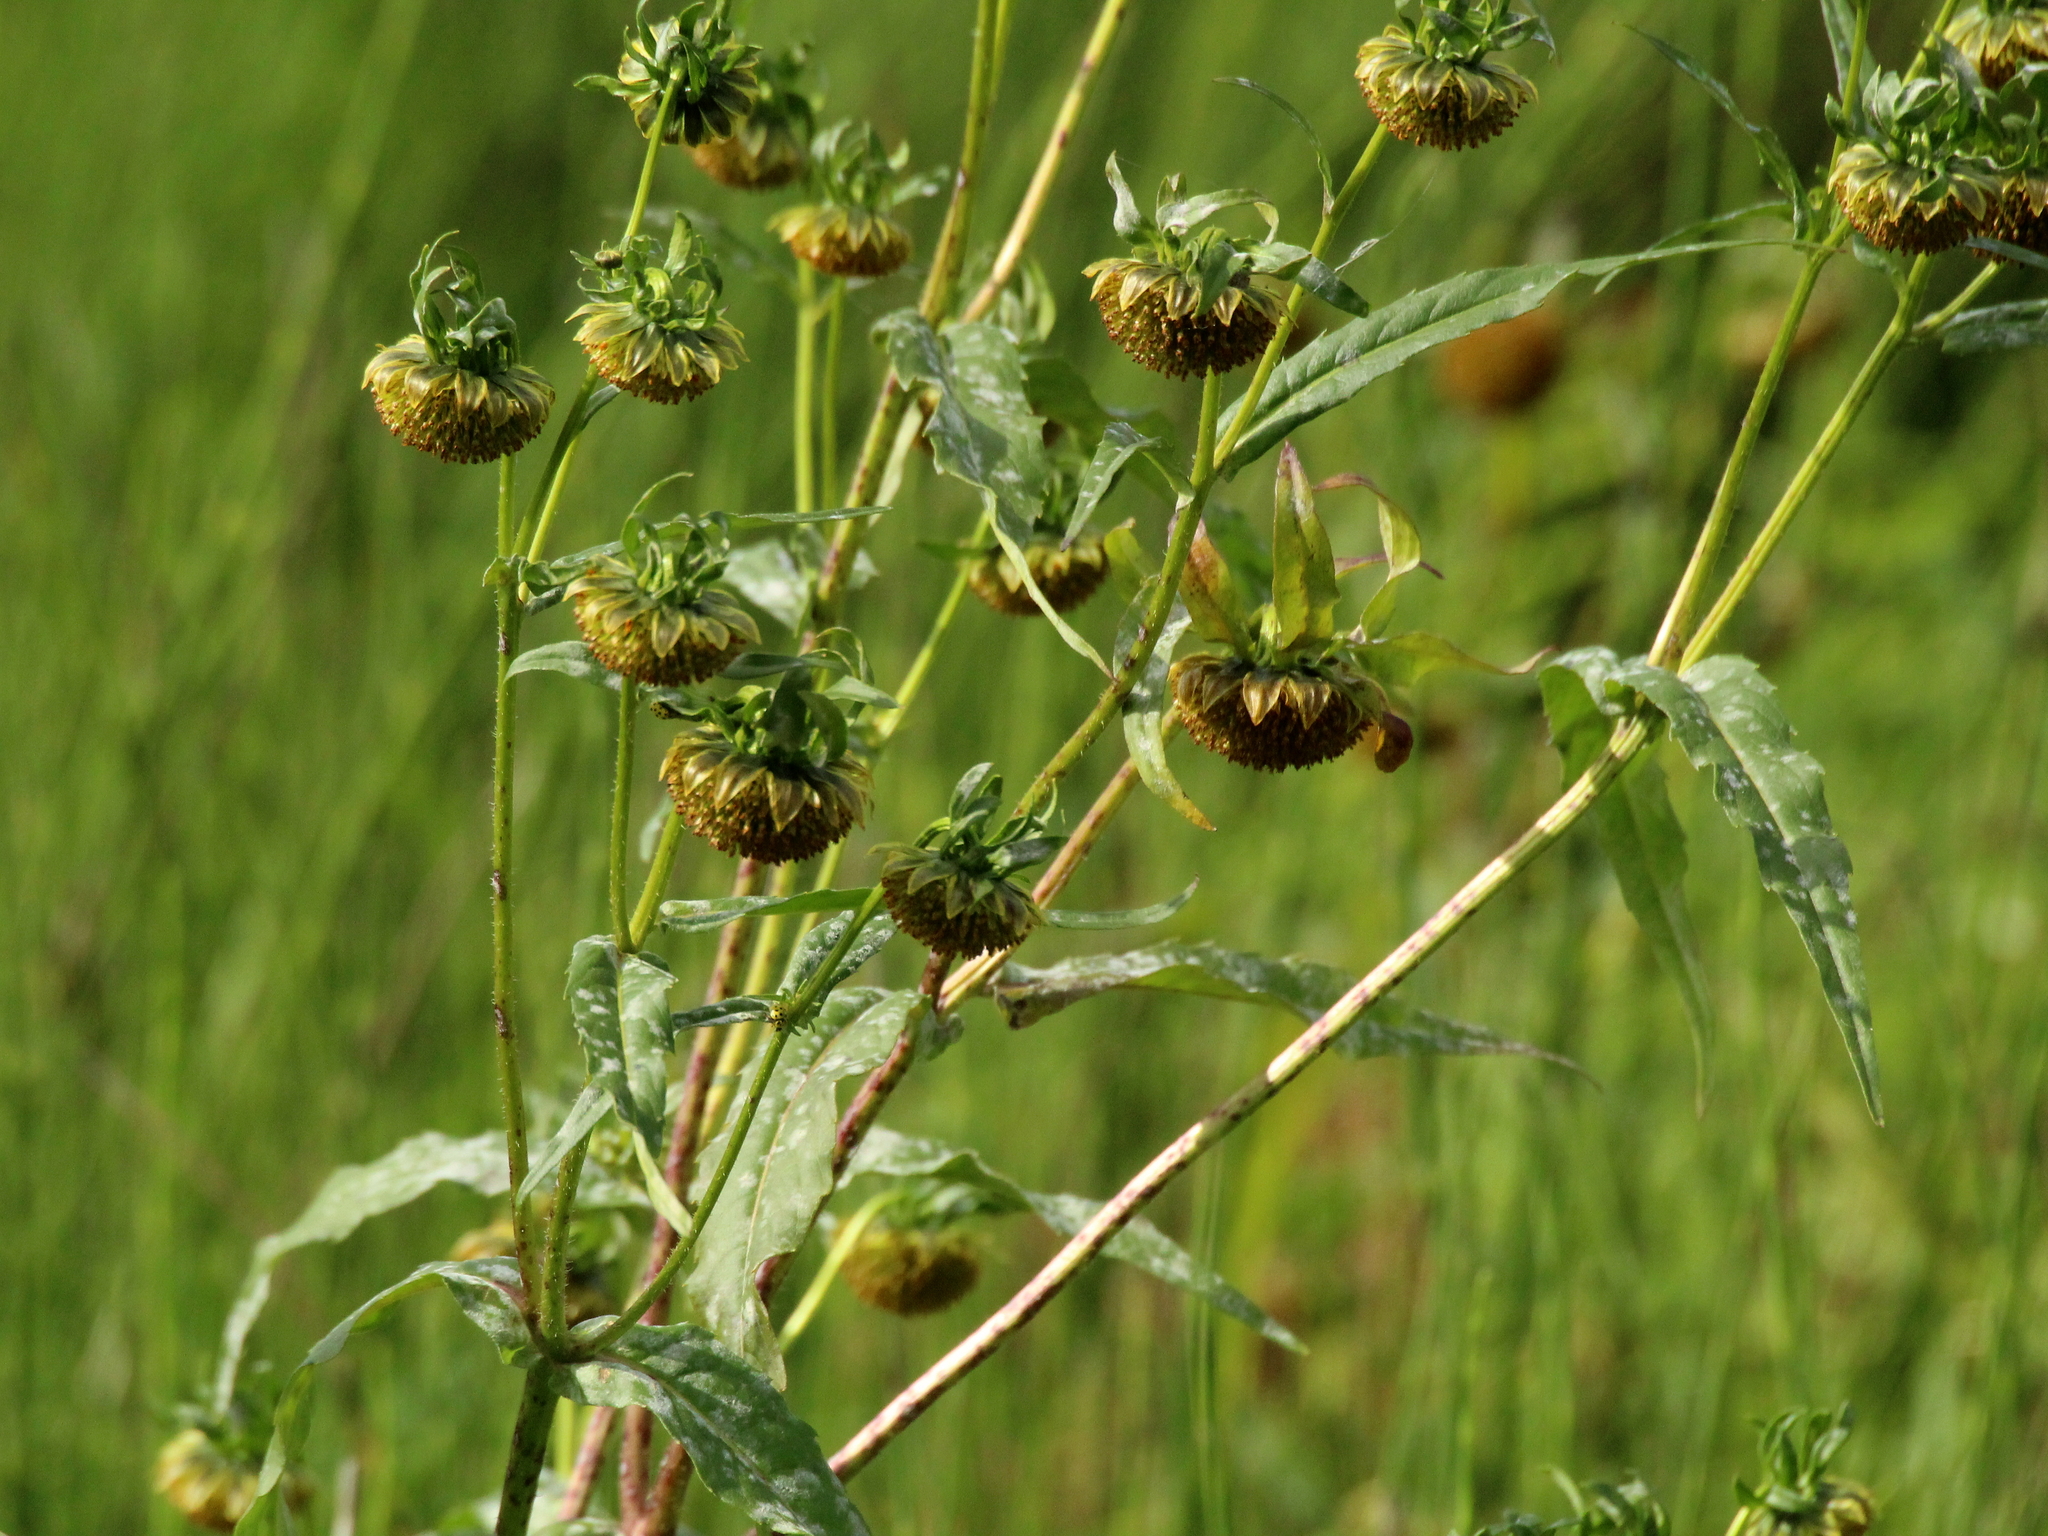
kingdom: Plantae
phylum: Tracheophyta
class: Magnoliopsida
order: Asterales
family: Asteraceae
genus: Bidens
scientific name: Bidens cernua
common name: Nodding bur-marigold
